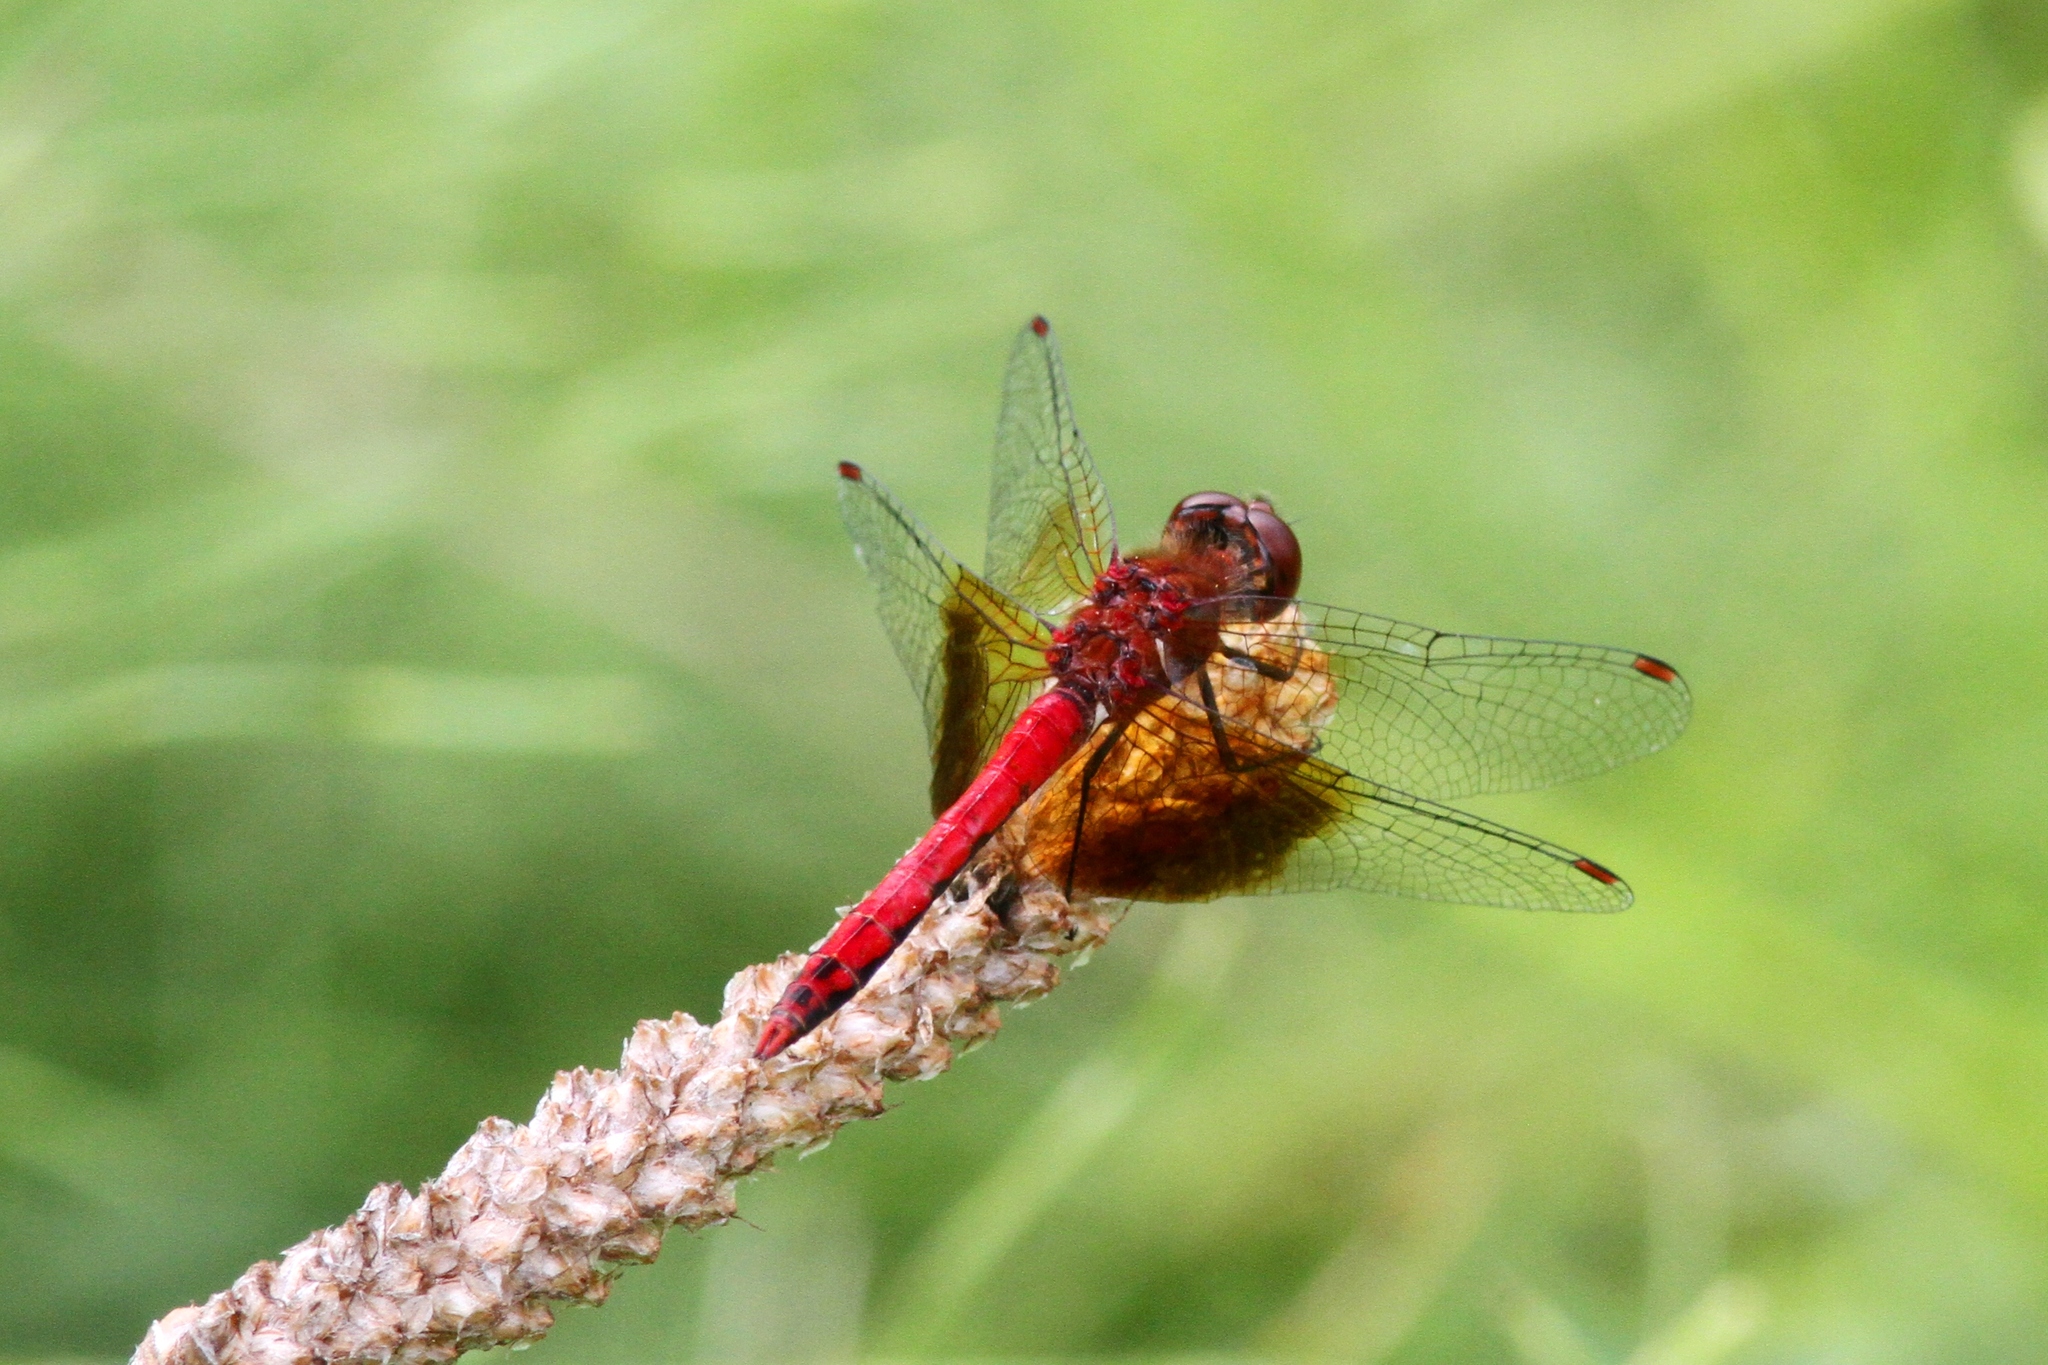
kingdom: Animalia
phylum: Arthropoda
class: Insecta
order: Odonata
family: Libellulidae
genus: Sympetrum
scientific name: Sympetrum semicinctum
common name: Band-winged meadowhawk
